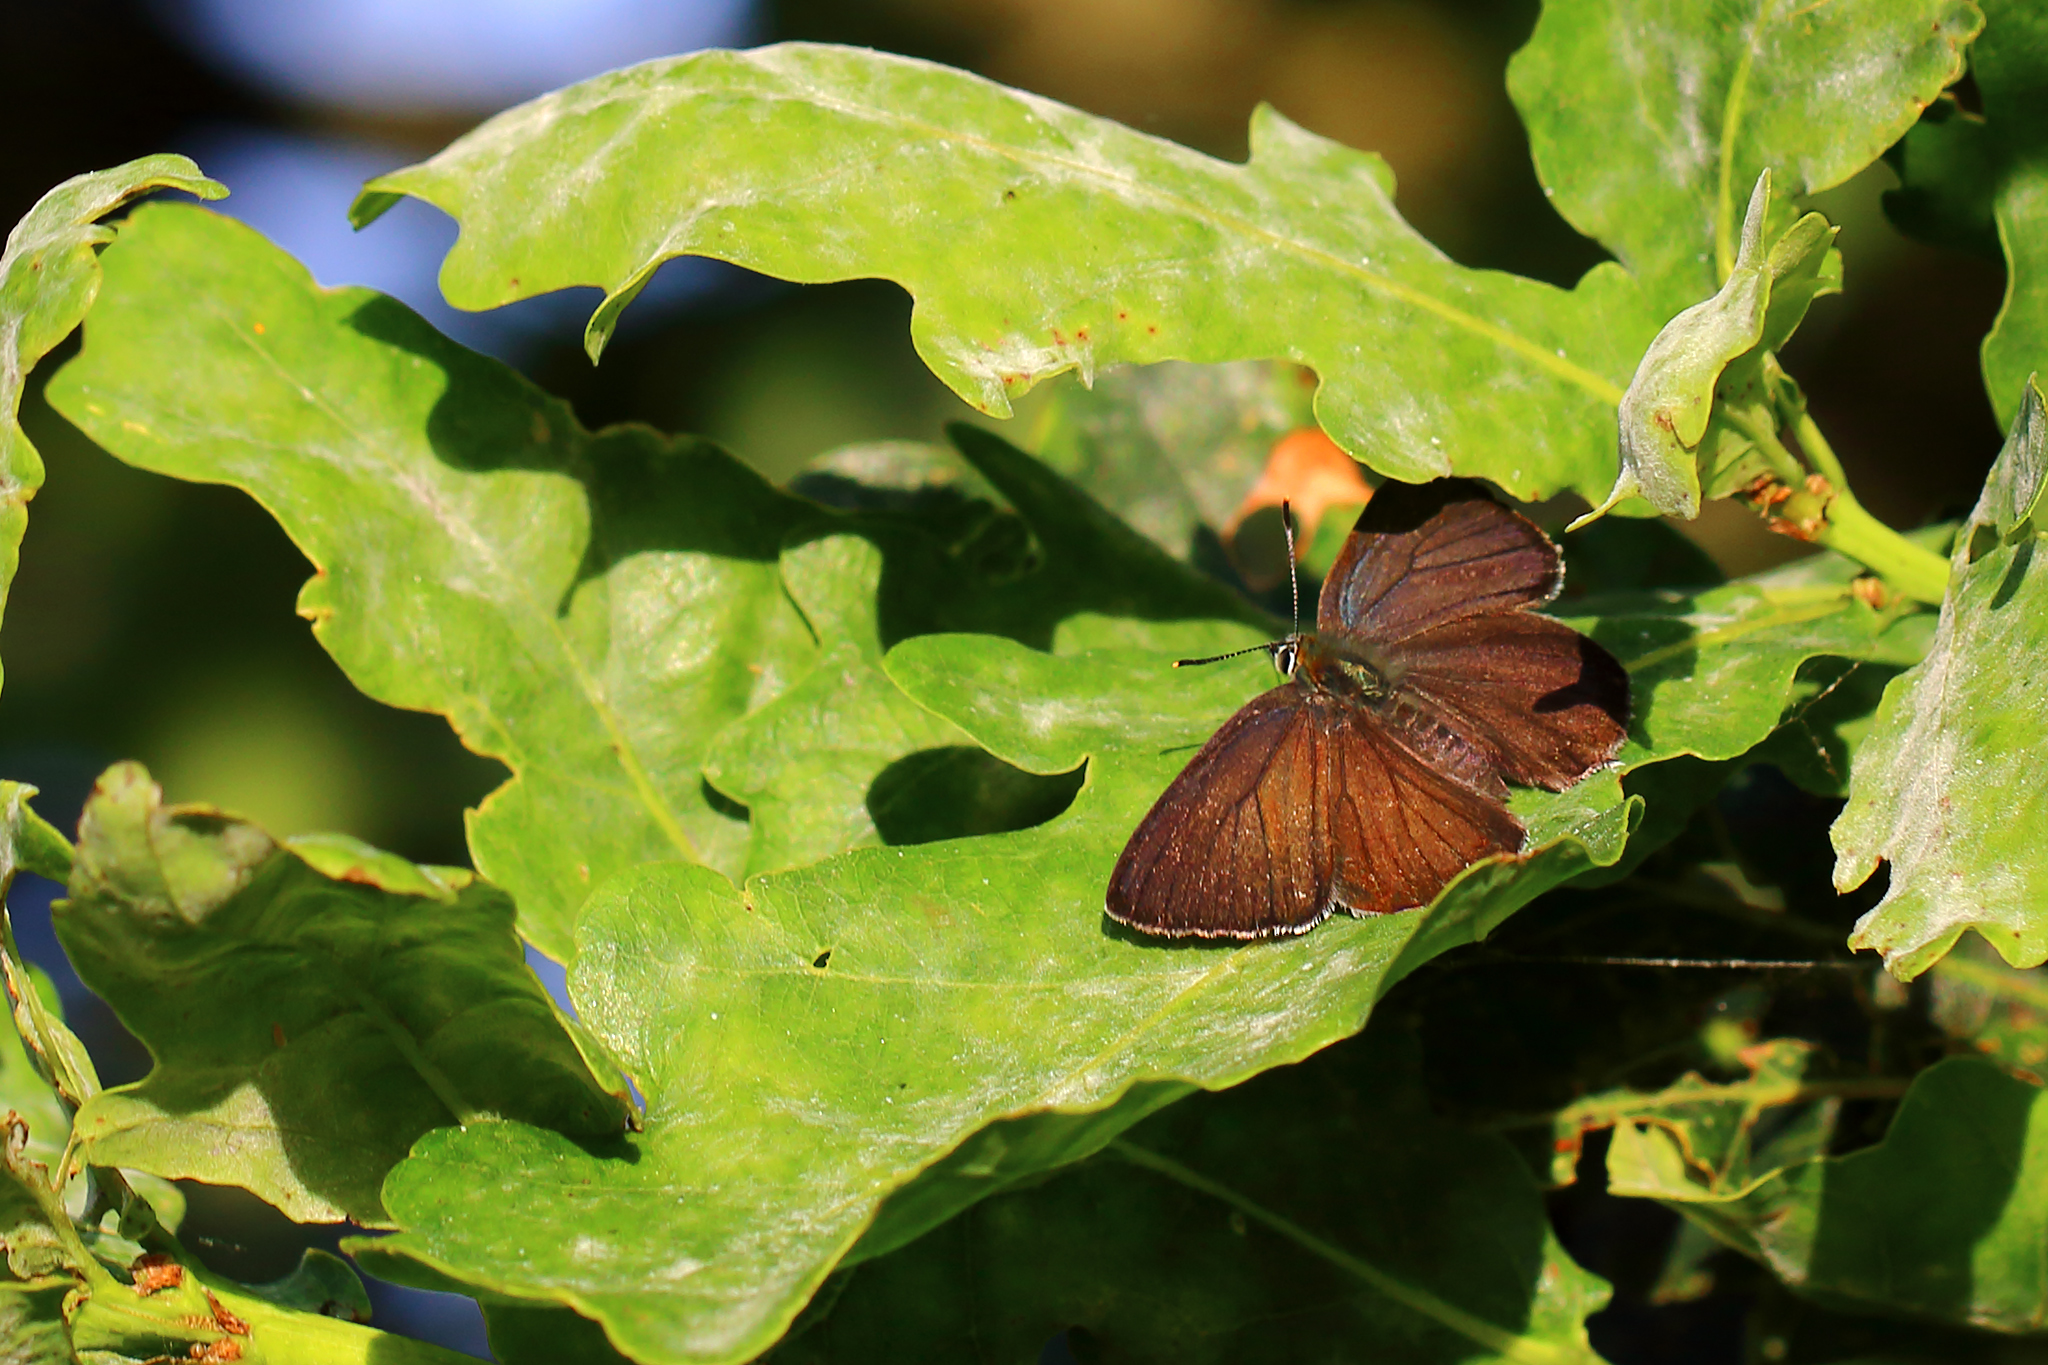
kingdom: Animalia
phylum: Arthropoda
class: Insecta
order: Lepidoptera
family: Lycaenidae
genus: Quercusia
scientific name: Quercusia quercus
